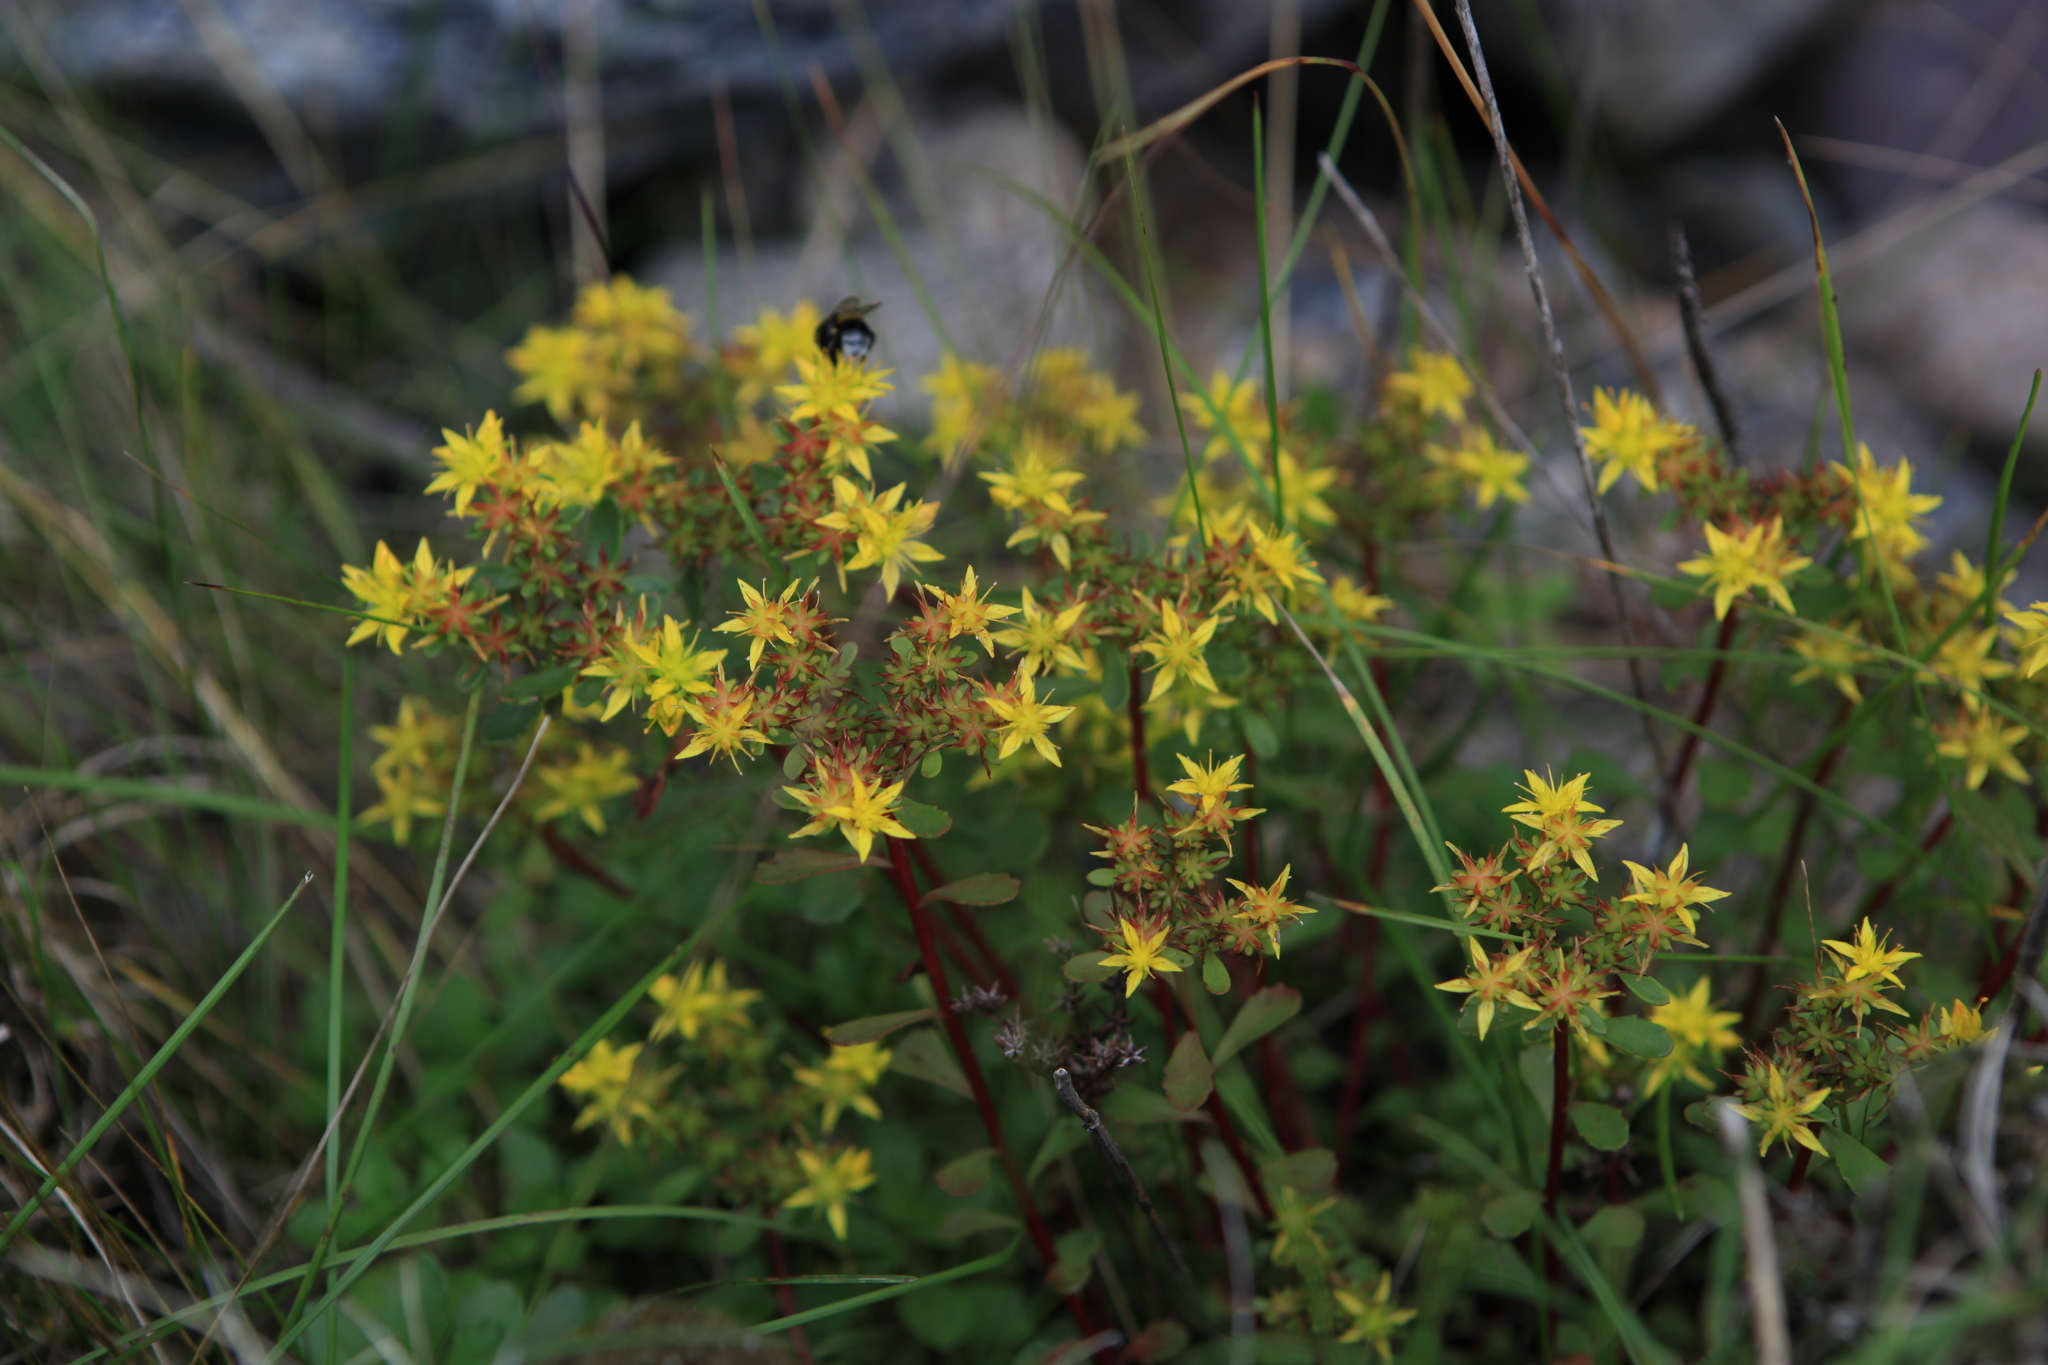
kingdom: Plantae
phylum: Tracheophyta
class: Magnoliopsida
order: Saxifragales
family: Crassulaceae
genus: Phedimus
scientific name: Phedimus hybridus
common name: Hybrid stonecrop
